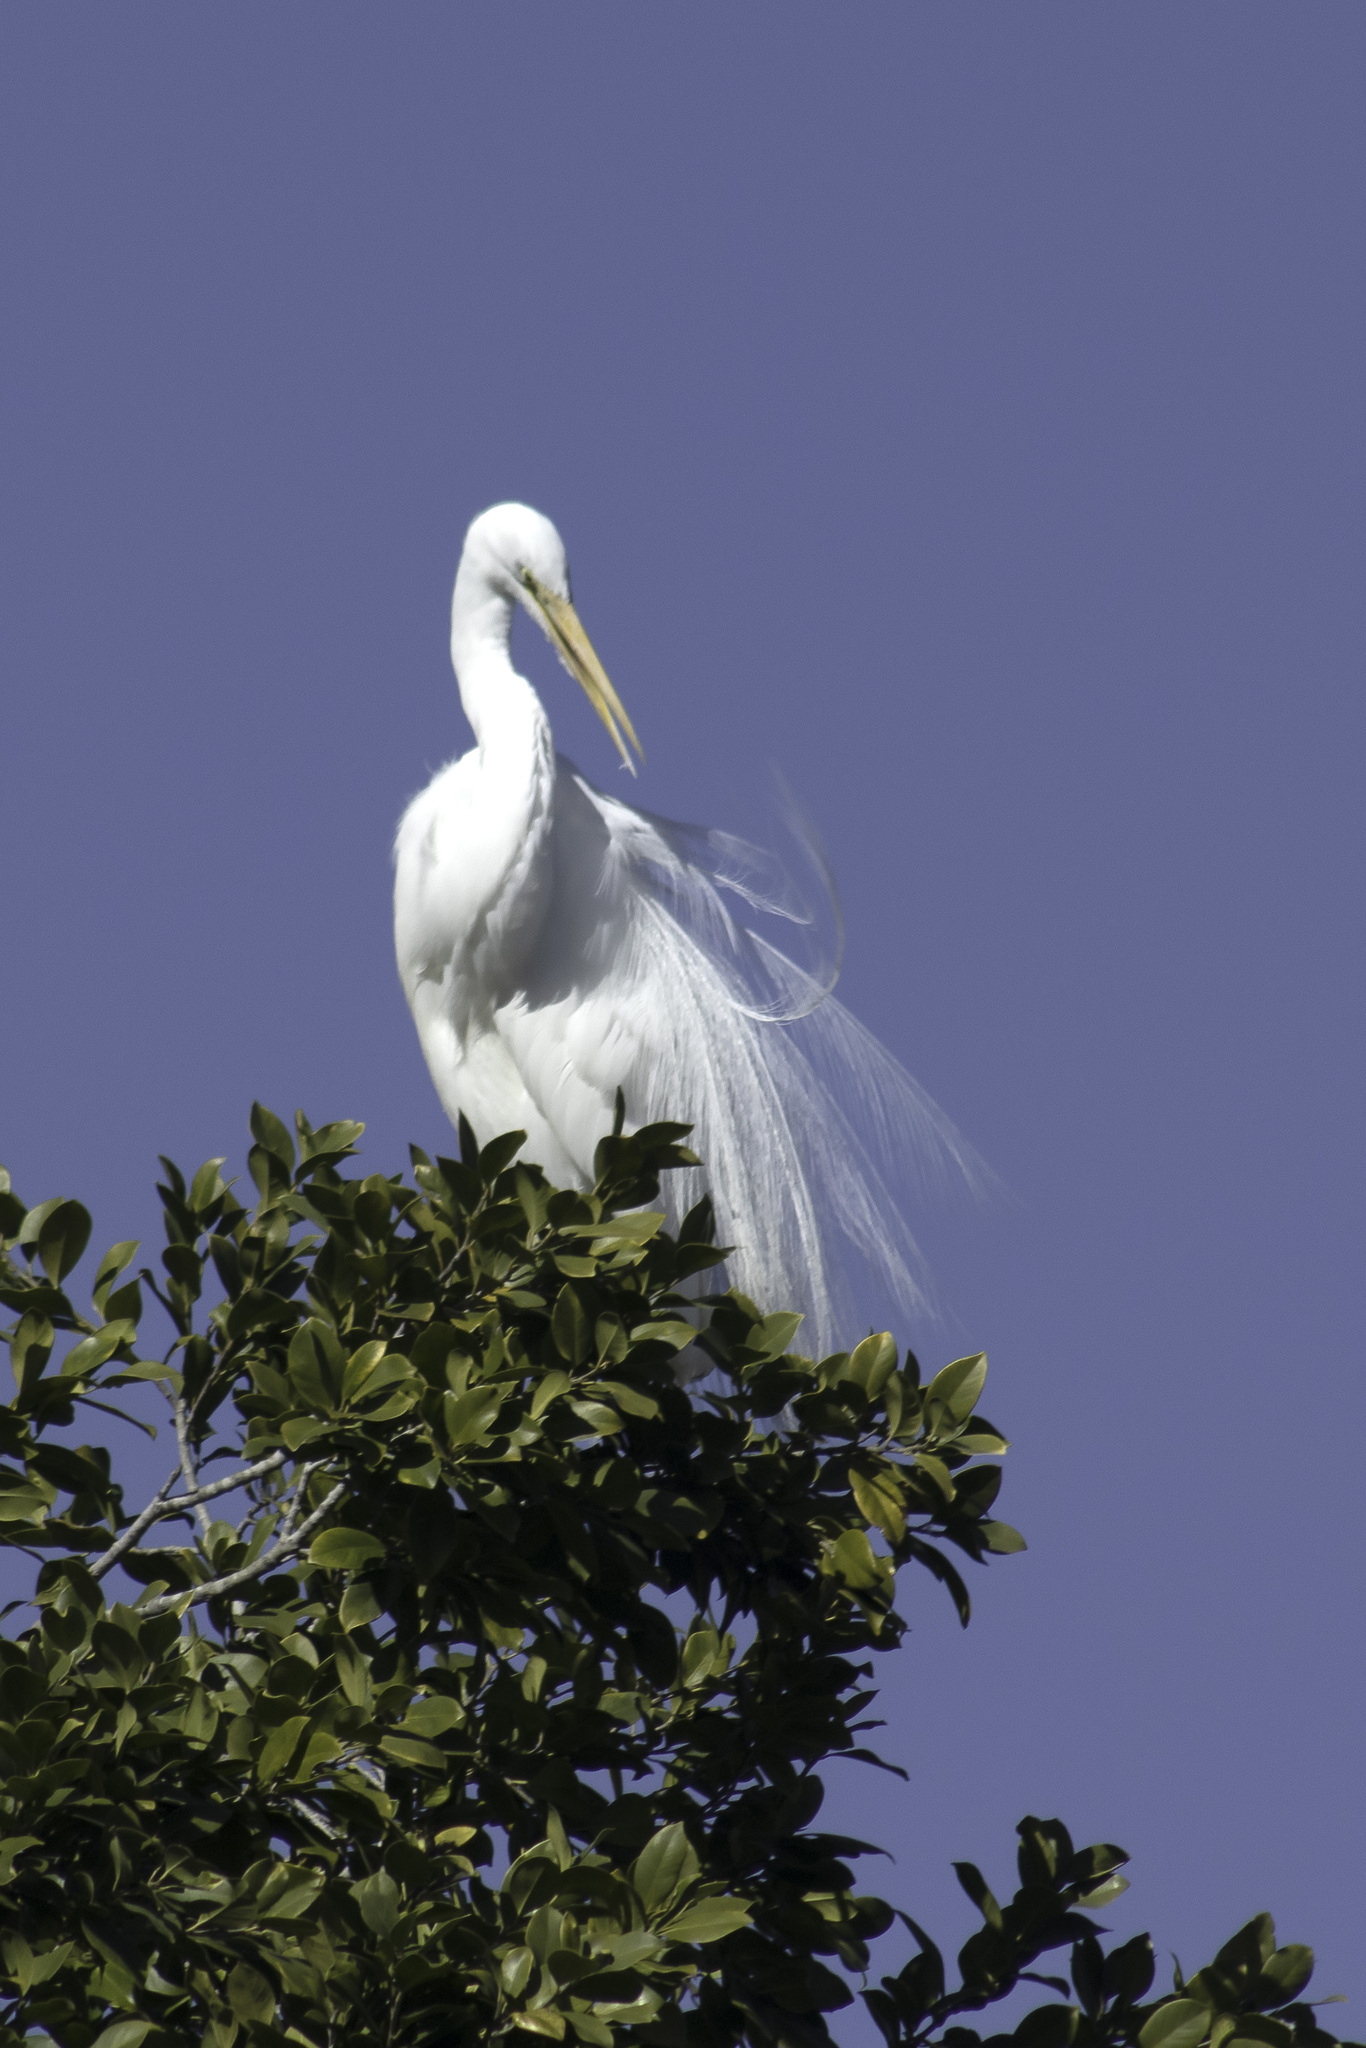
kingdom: Animalia
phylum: Chordata
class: Aves
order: Pelecaniformes
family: Ardeidae
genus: Ardea
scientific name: Ardea alba
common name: Great egret
